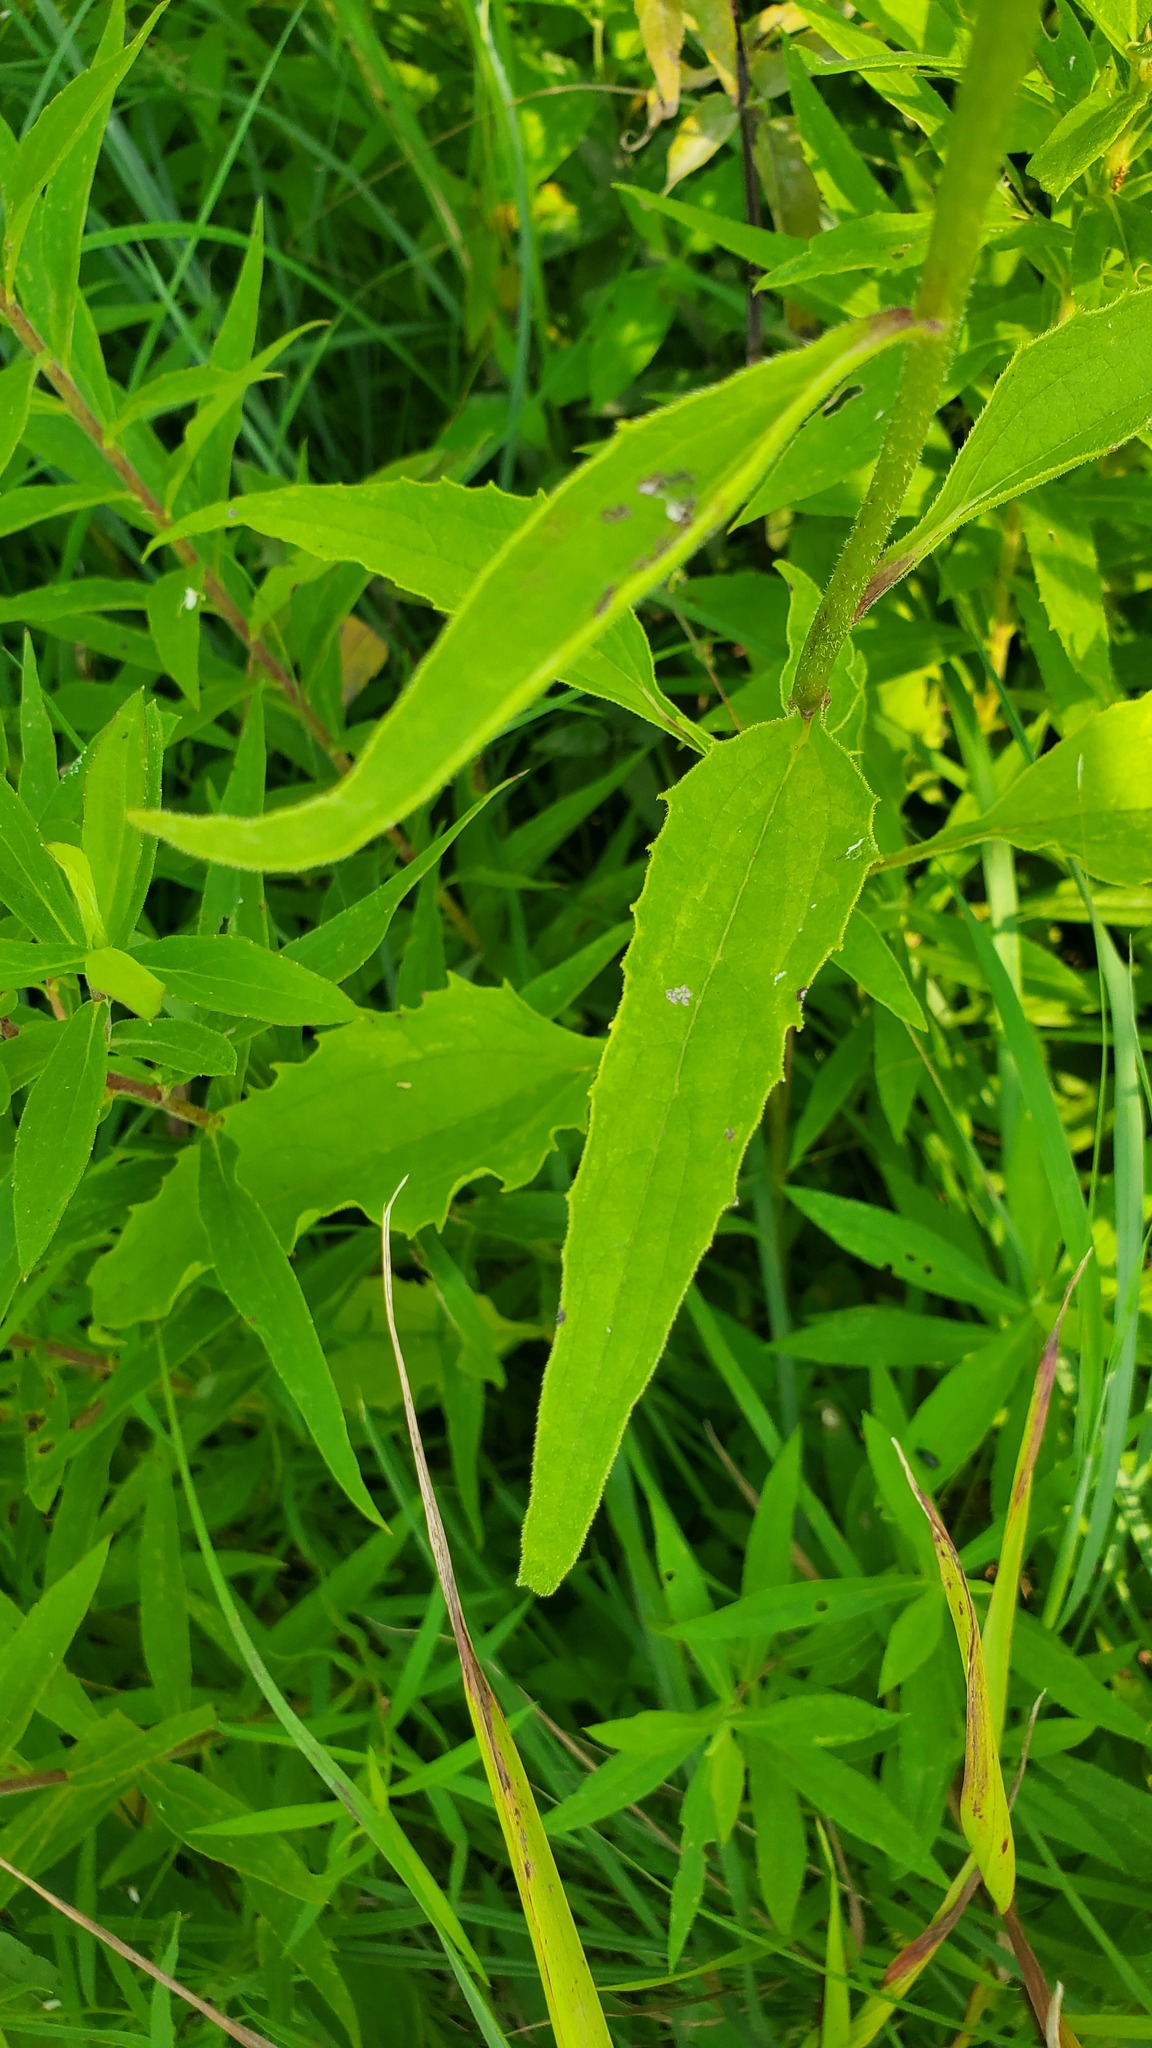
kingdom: Plantae
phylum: Tracheophyta
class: Magnoliopsida
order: Asterales
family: Asteraceae
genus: Echinacea
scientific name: Echinacea purpurea
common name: Broad-leaved purple coneflower
